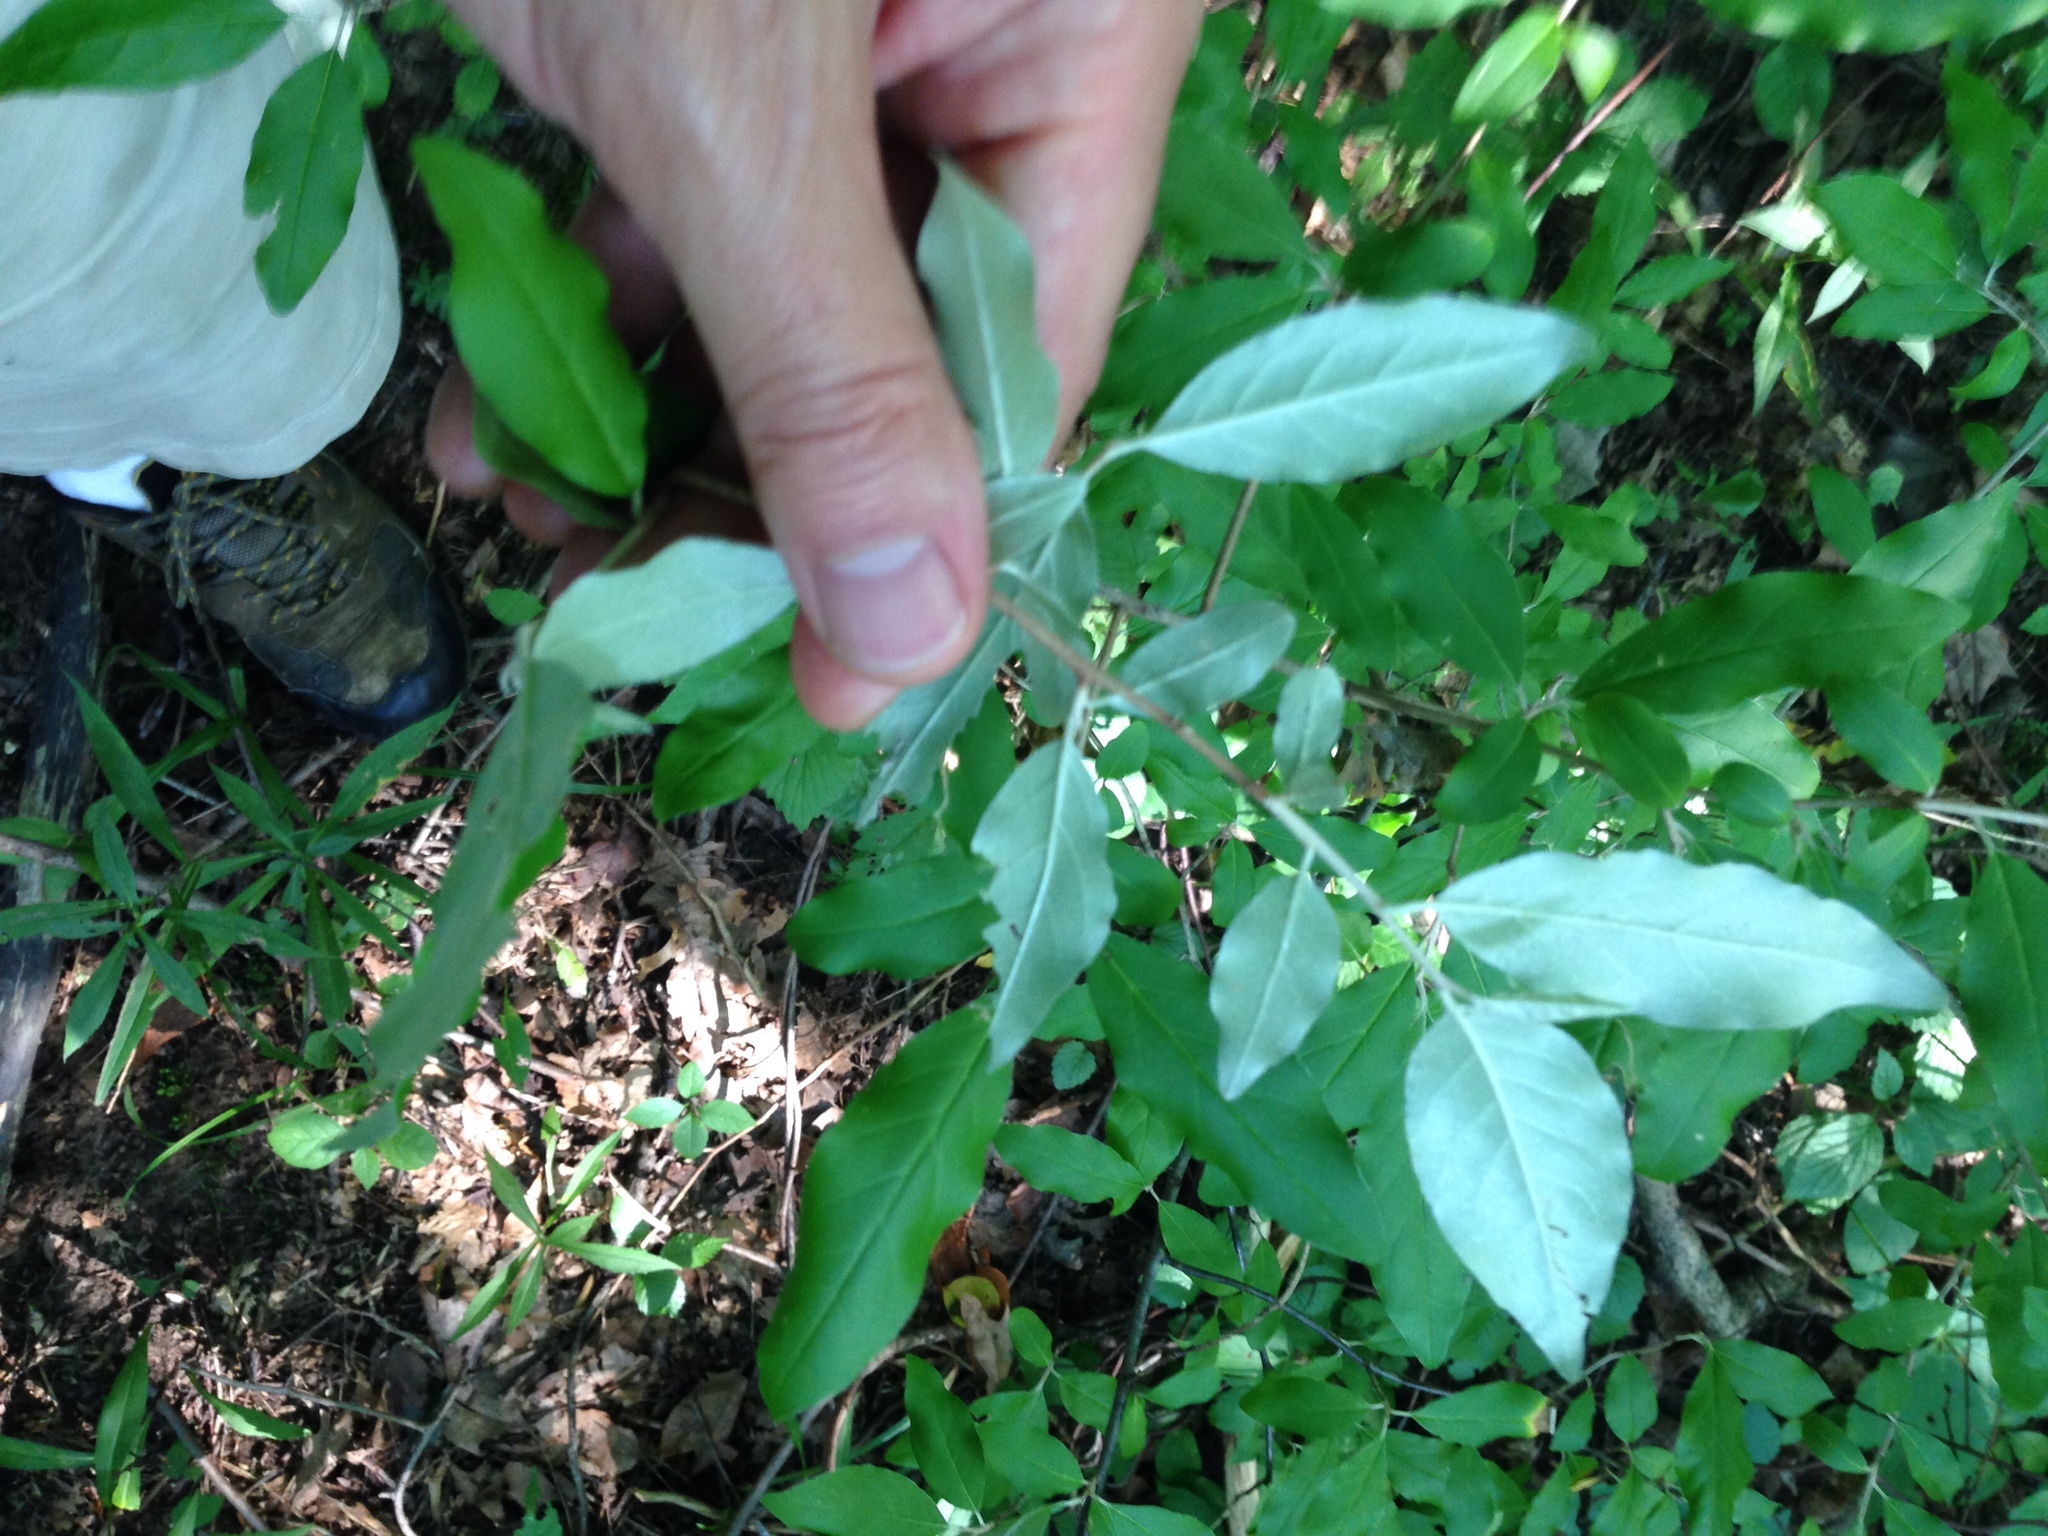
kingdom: Plantae
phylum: Tracheophyta
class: Magnoliopsida
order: Rosales
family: Elaeagnaceae
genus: Elaeagnus
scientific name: Elaeagnus umbellata
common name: Autumn olive
